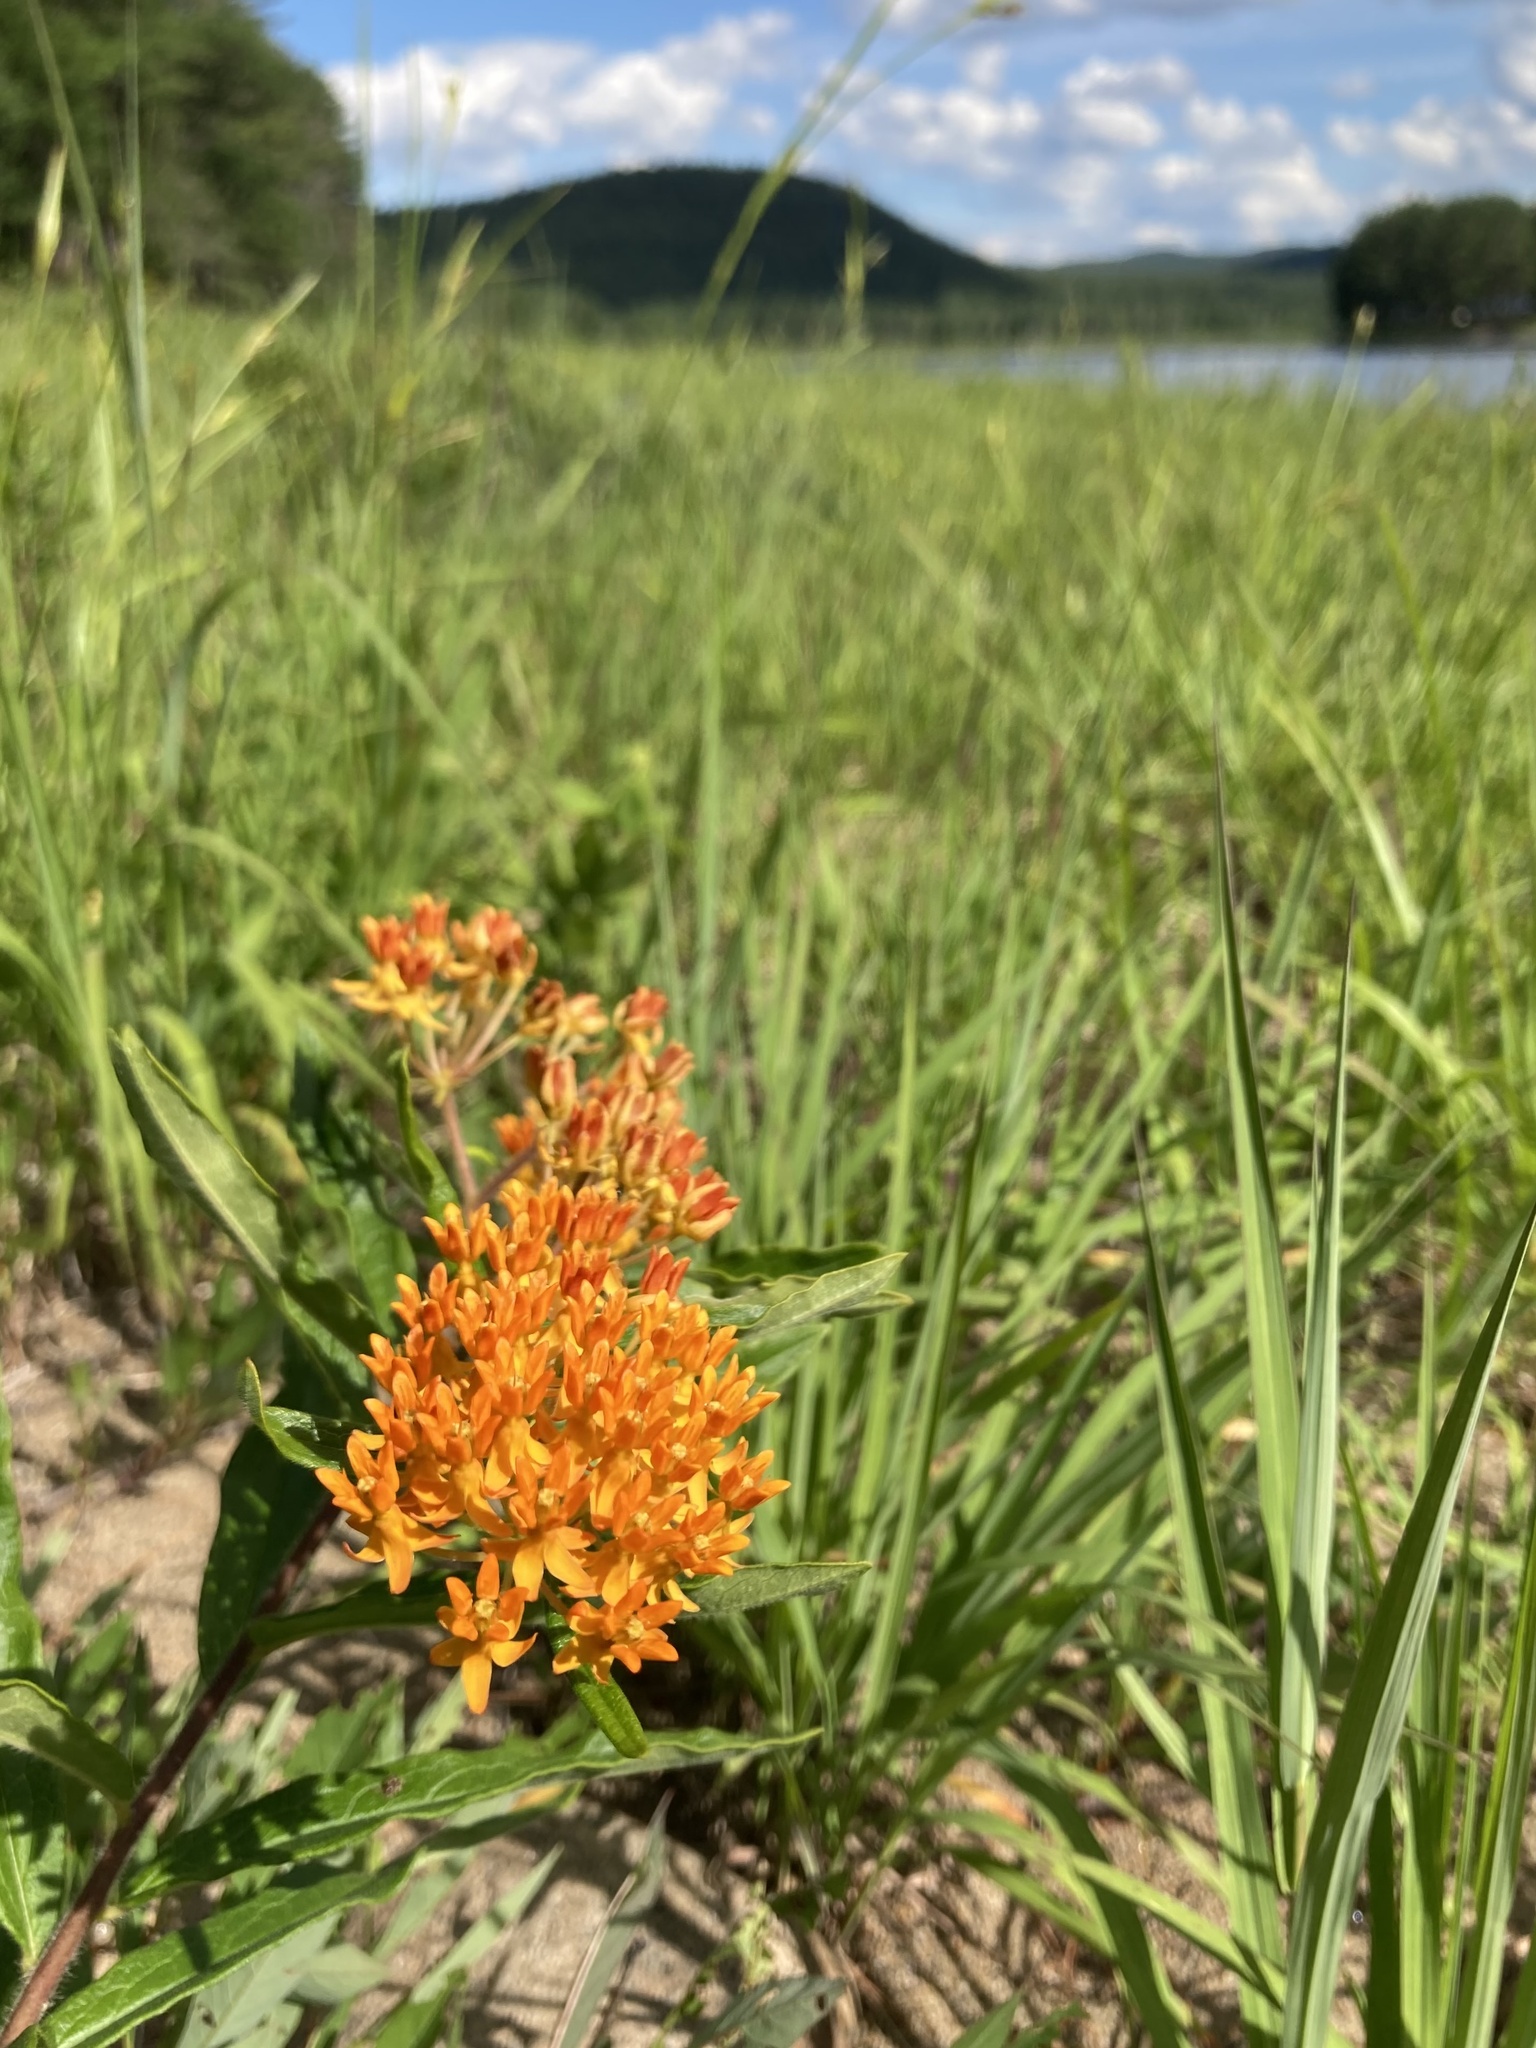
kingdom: Plantae
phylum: Tracheophyta
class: Magnoliopsida
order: Gentianales
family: Apocynaceae
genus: Asclepias
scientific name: Asclepias tuberosa
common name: Butterfly milkweed
